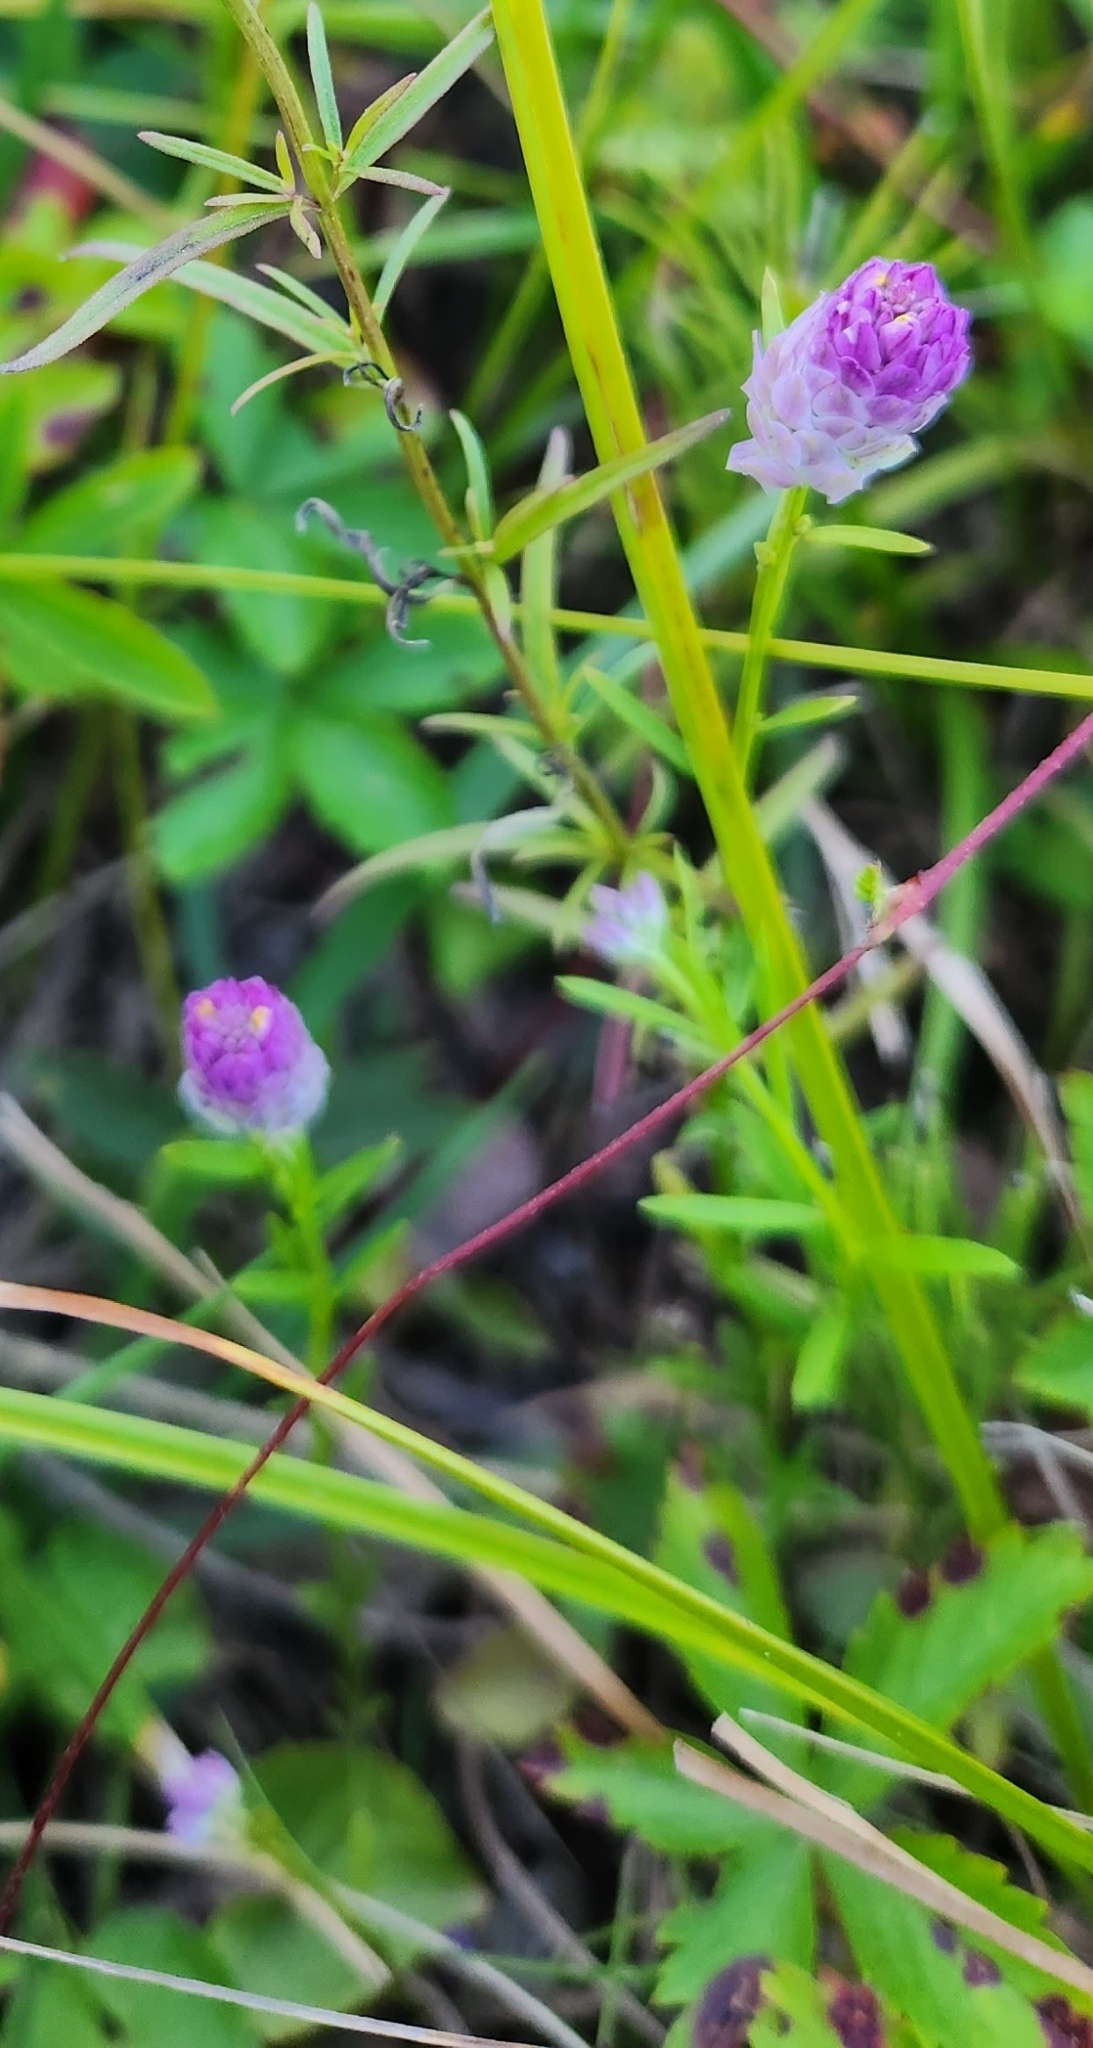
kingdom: Plantae
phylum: Tracheophyta
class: Magnoliopsida
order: Fabales
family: Polygalaceae
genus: Polygala
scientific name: Polygala sanguinea
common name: Blood milkwort
